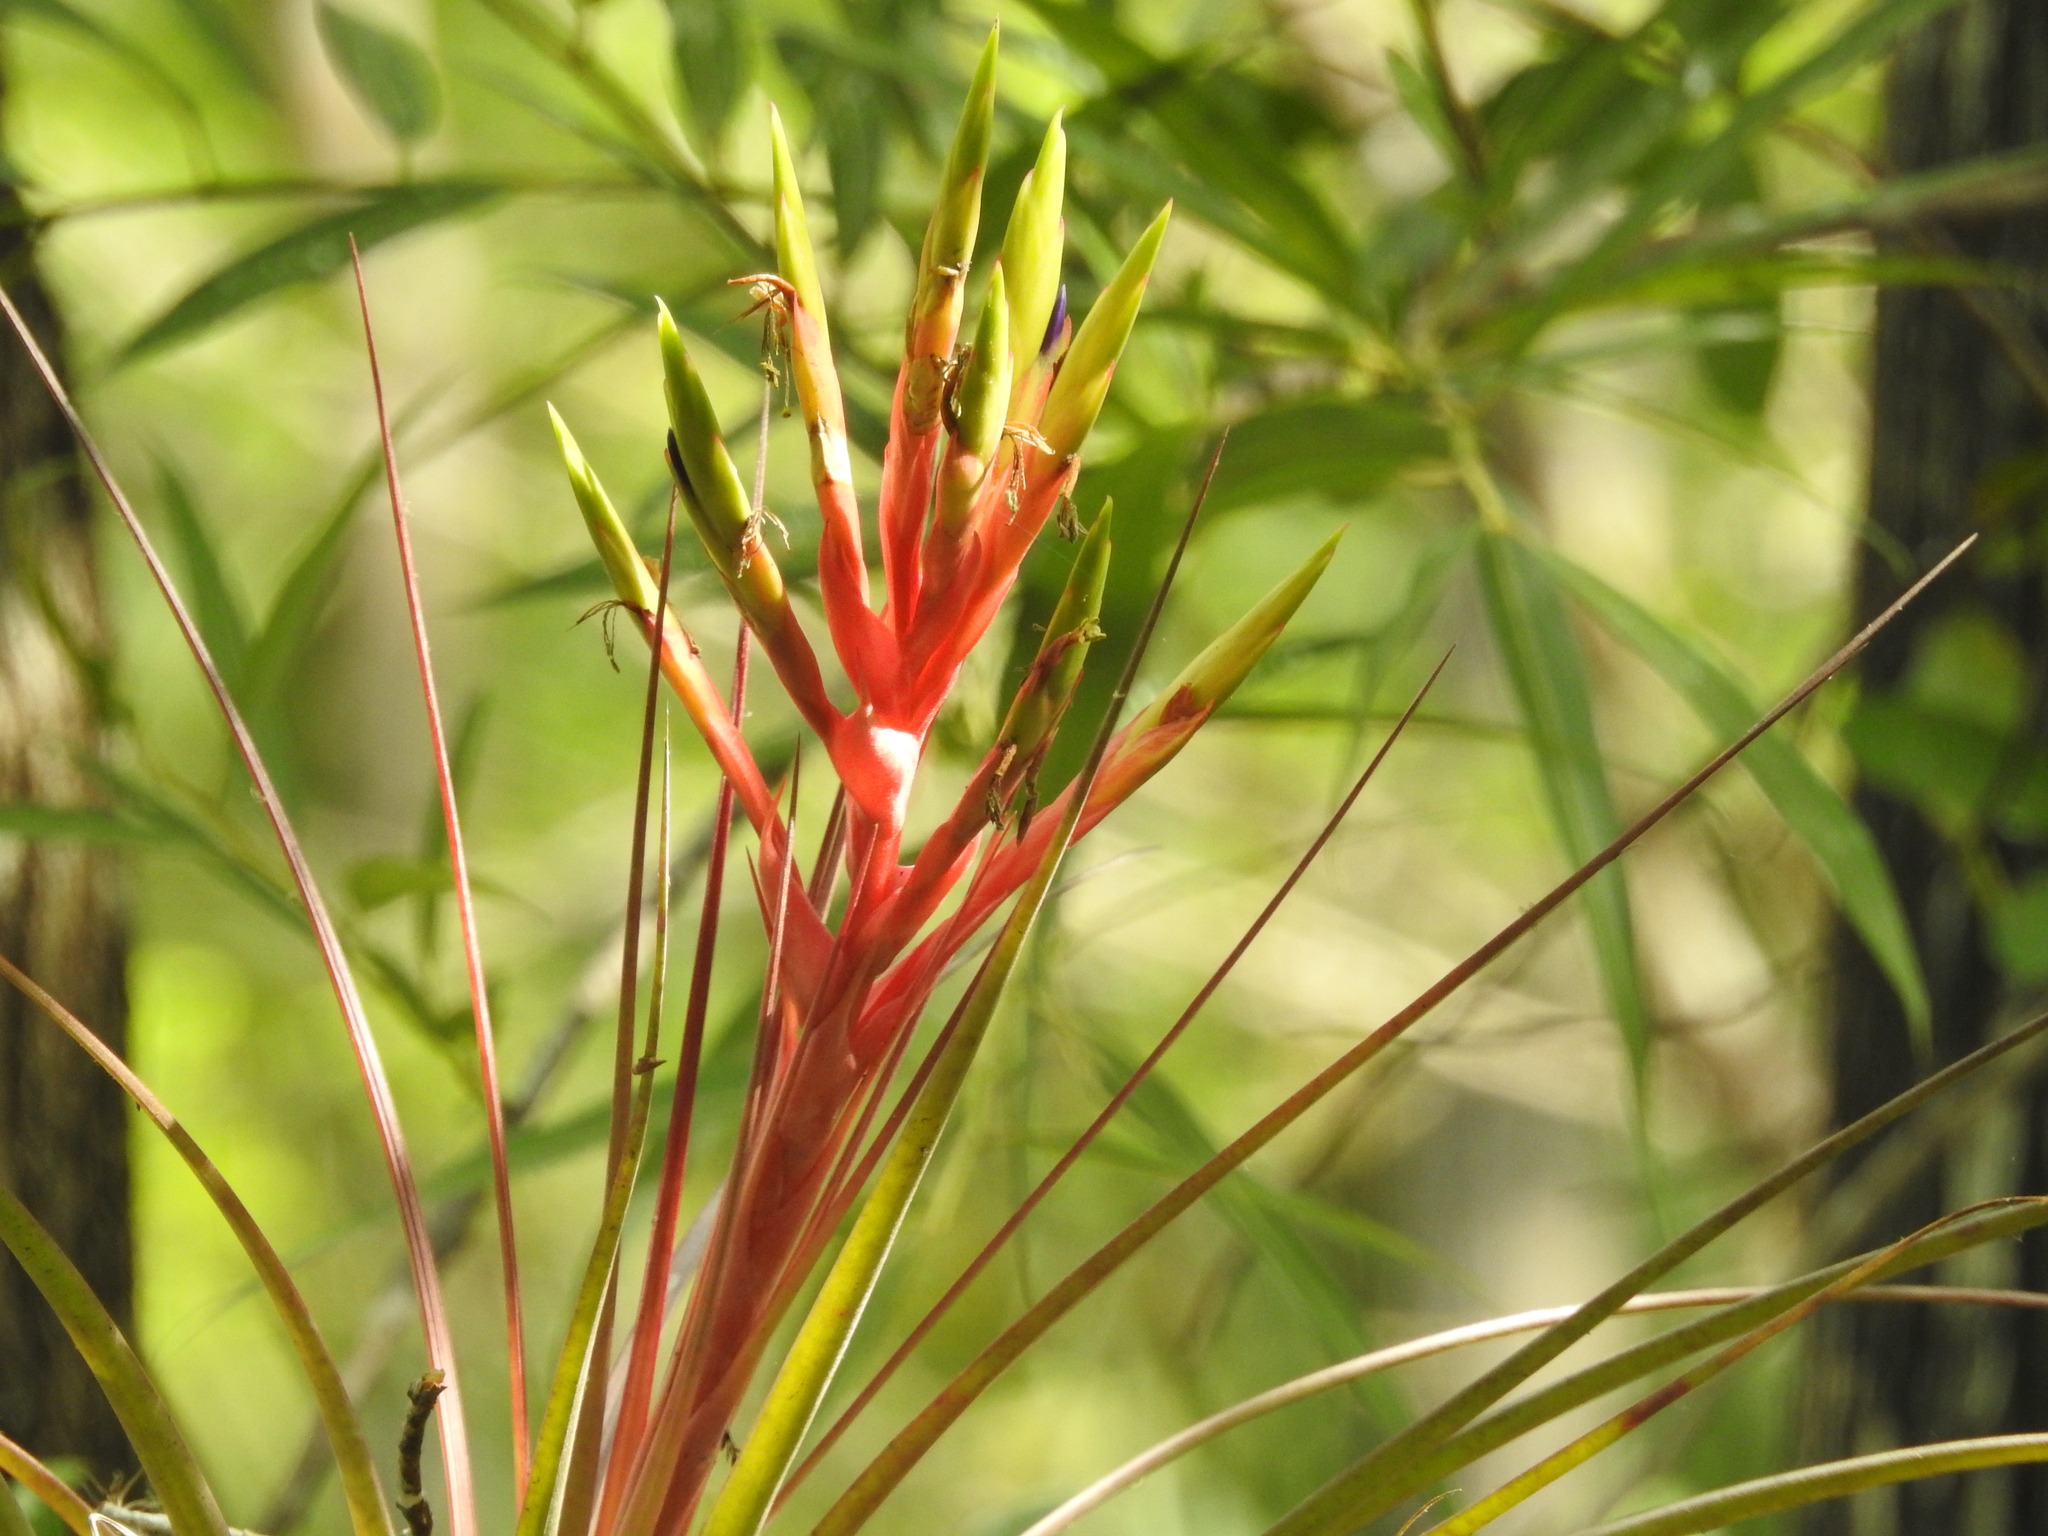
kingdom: Plantae
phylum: Tracheophyta
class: Liliopsida
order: Poales
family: Bromeliaceae
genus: Tillandsia
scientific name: Tillandsia fasciculata
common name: Giant airplant
